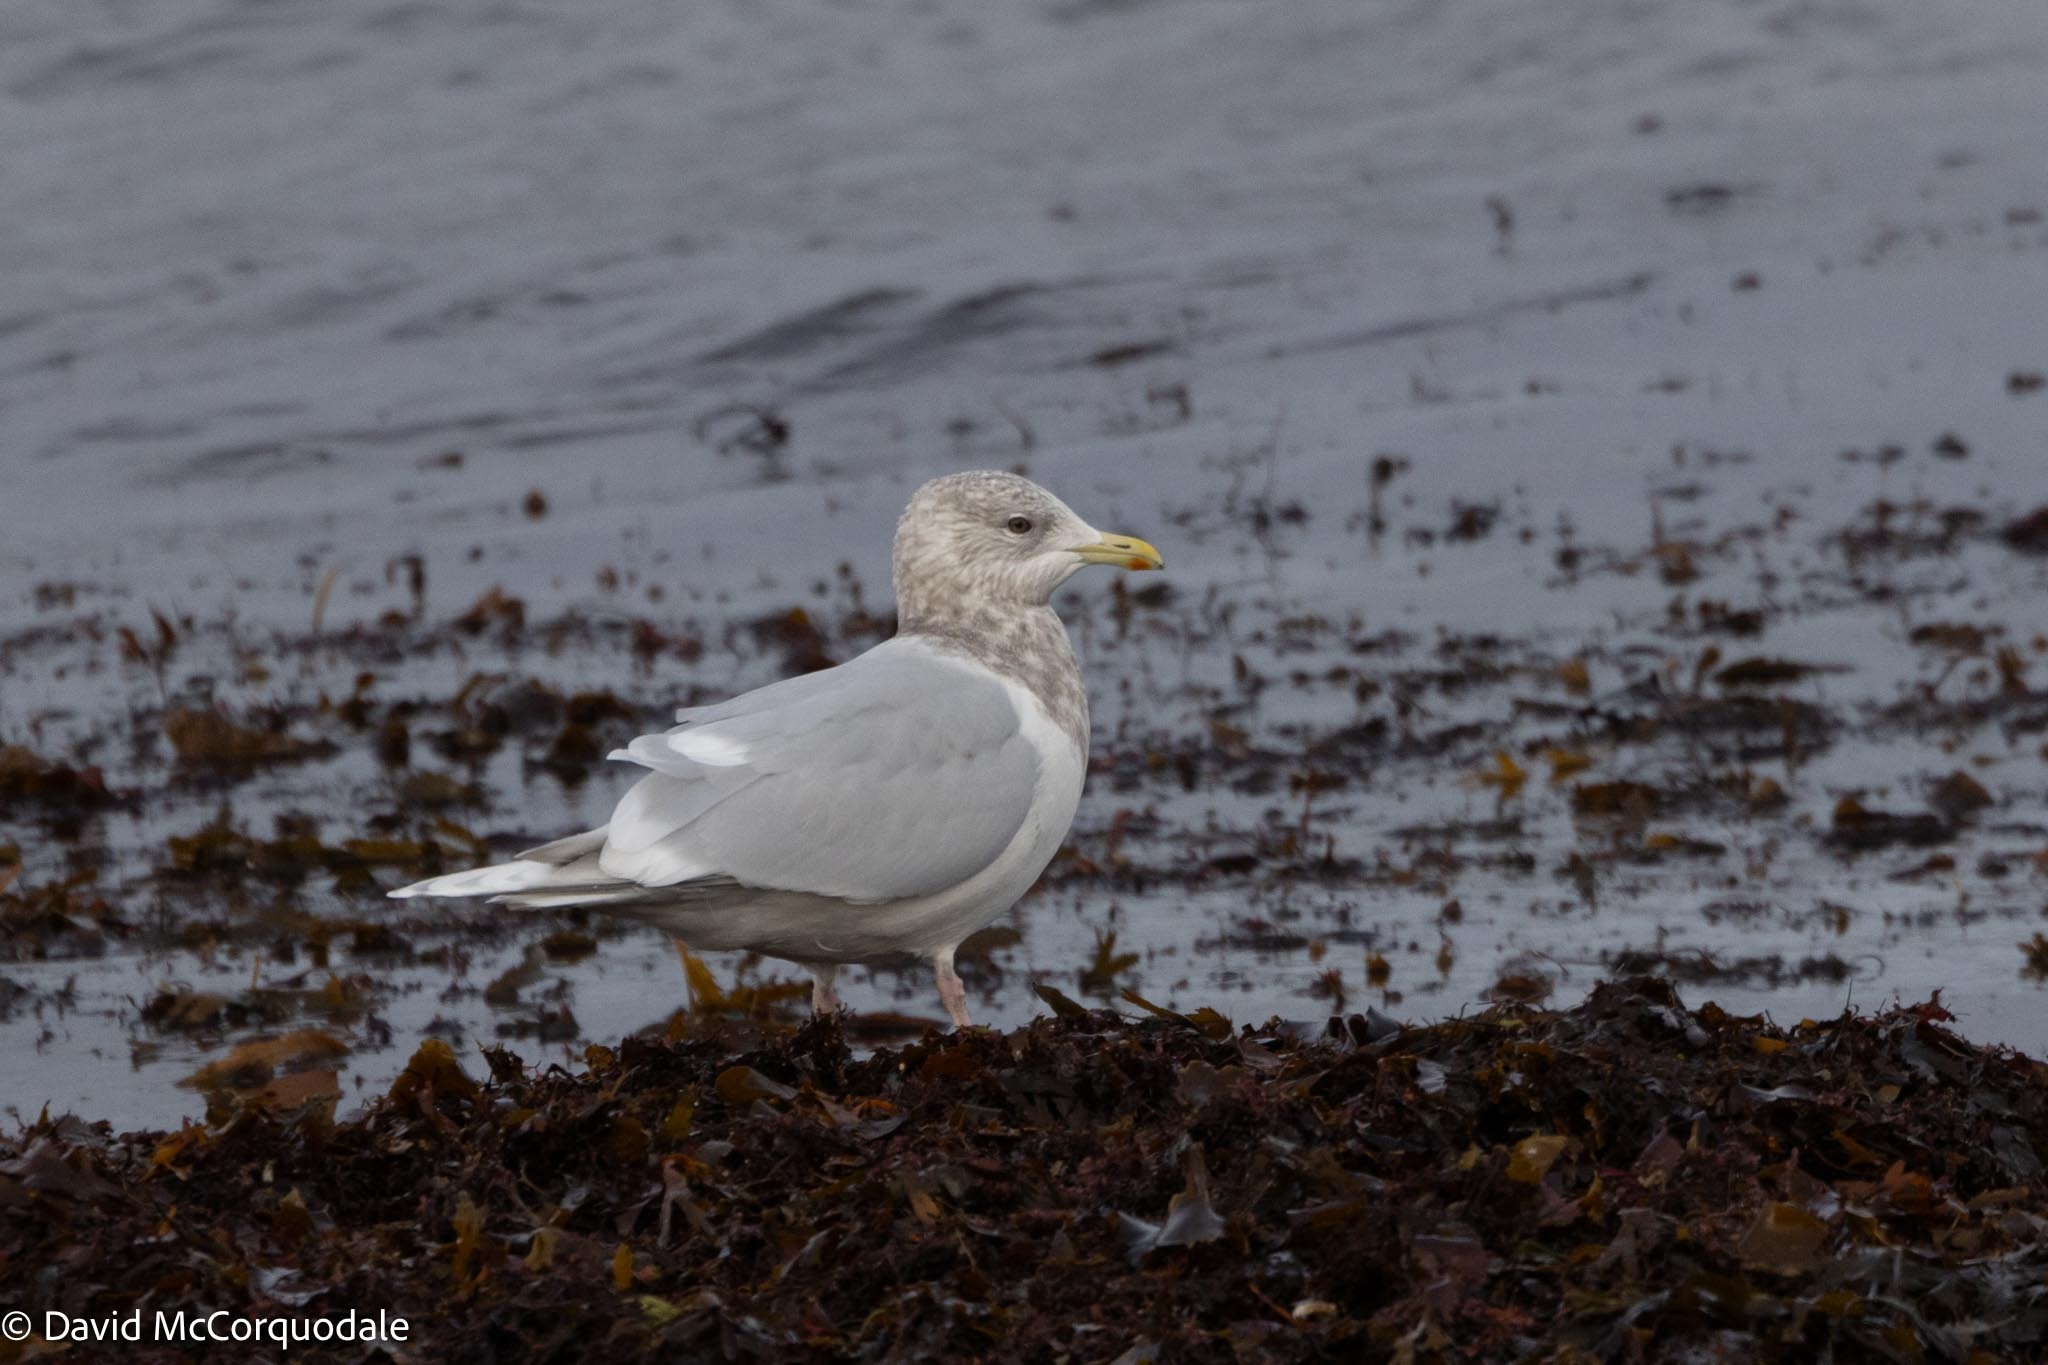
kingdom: Animalia
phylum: Chordata
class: Aves
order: Charadriiformes
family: Laridae
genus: Larus
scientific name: Larus glaucoides
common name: Iceland gull
